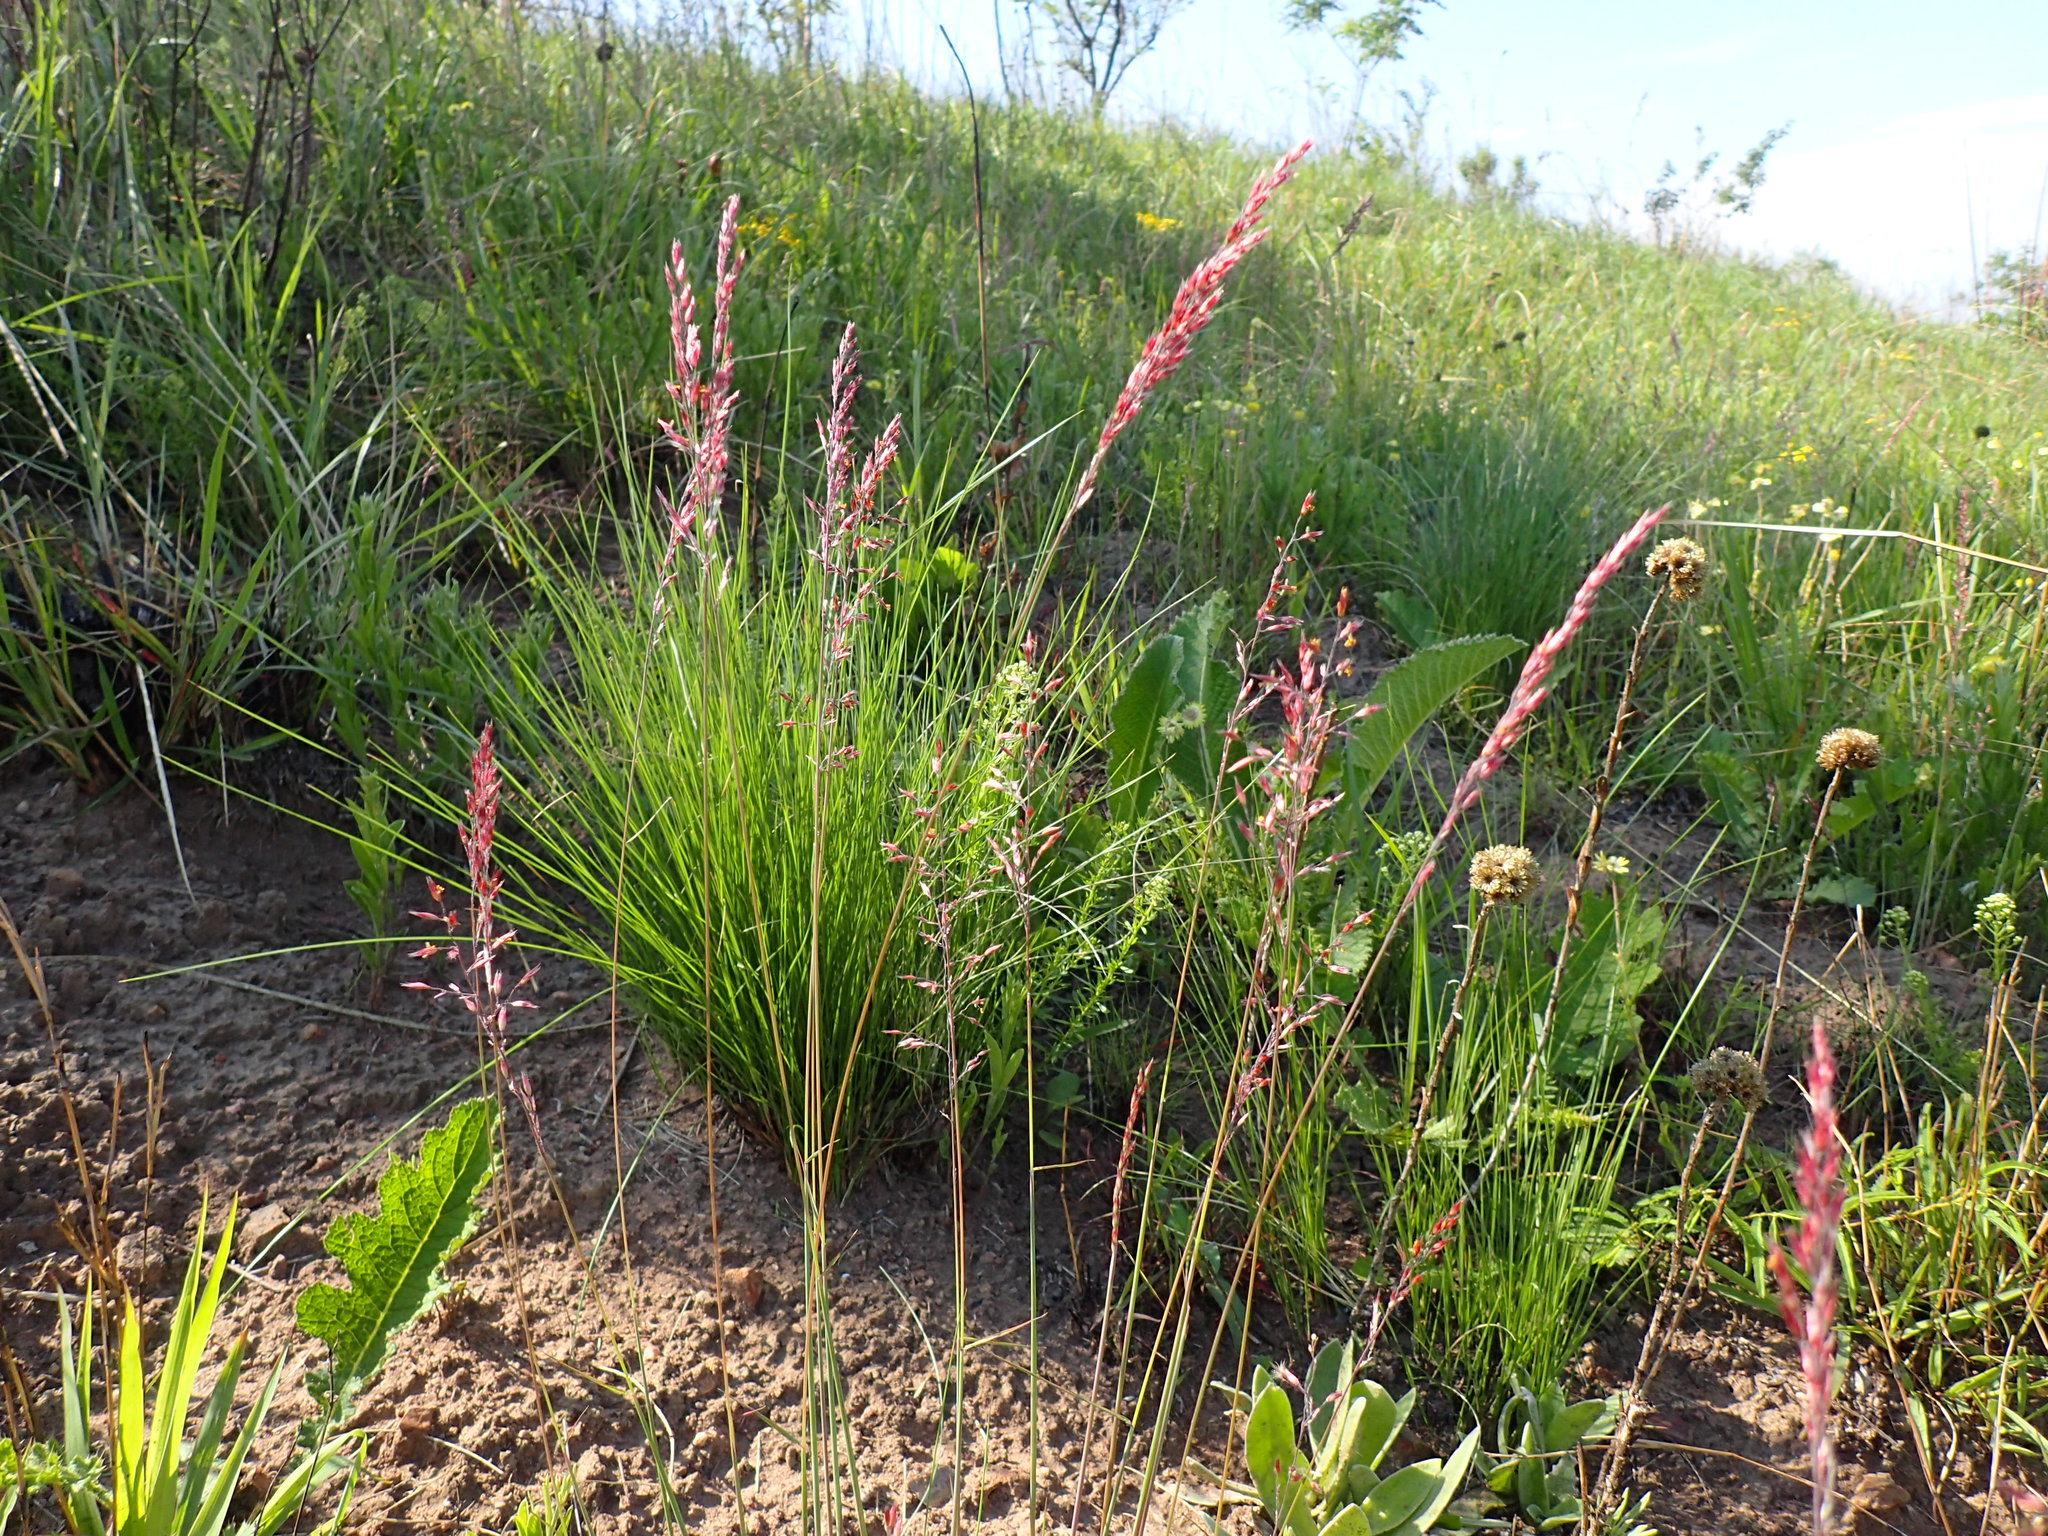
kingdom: Plantae
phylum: Tracheophyta
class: Liliopsida
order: Poales
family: Poaceae
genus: Melinis
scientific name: Melinis nerviglumis
